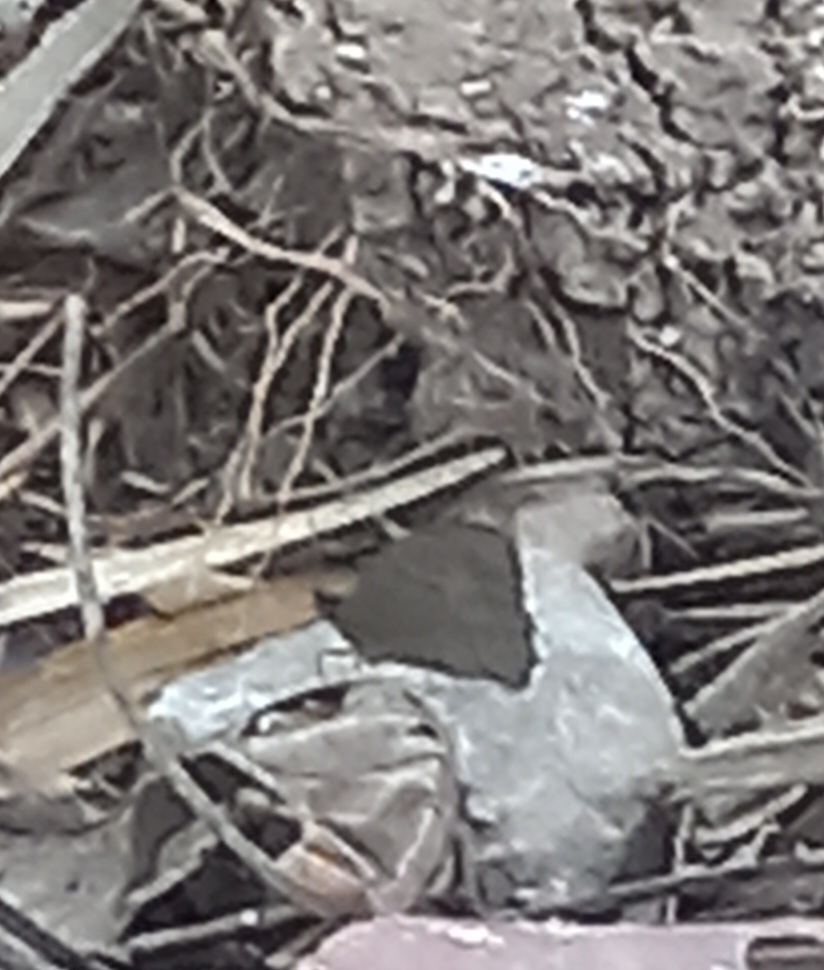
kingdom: Animalia
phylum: Arthropoda
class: Insecta
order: Lepidoptera
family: Nymphalidae
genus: Maniola
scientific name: Maniola jurtina
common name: Meadow brown
